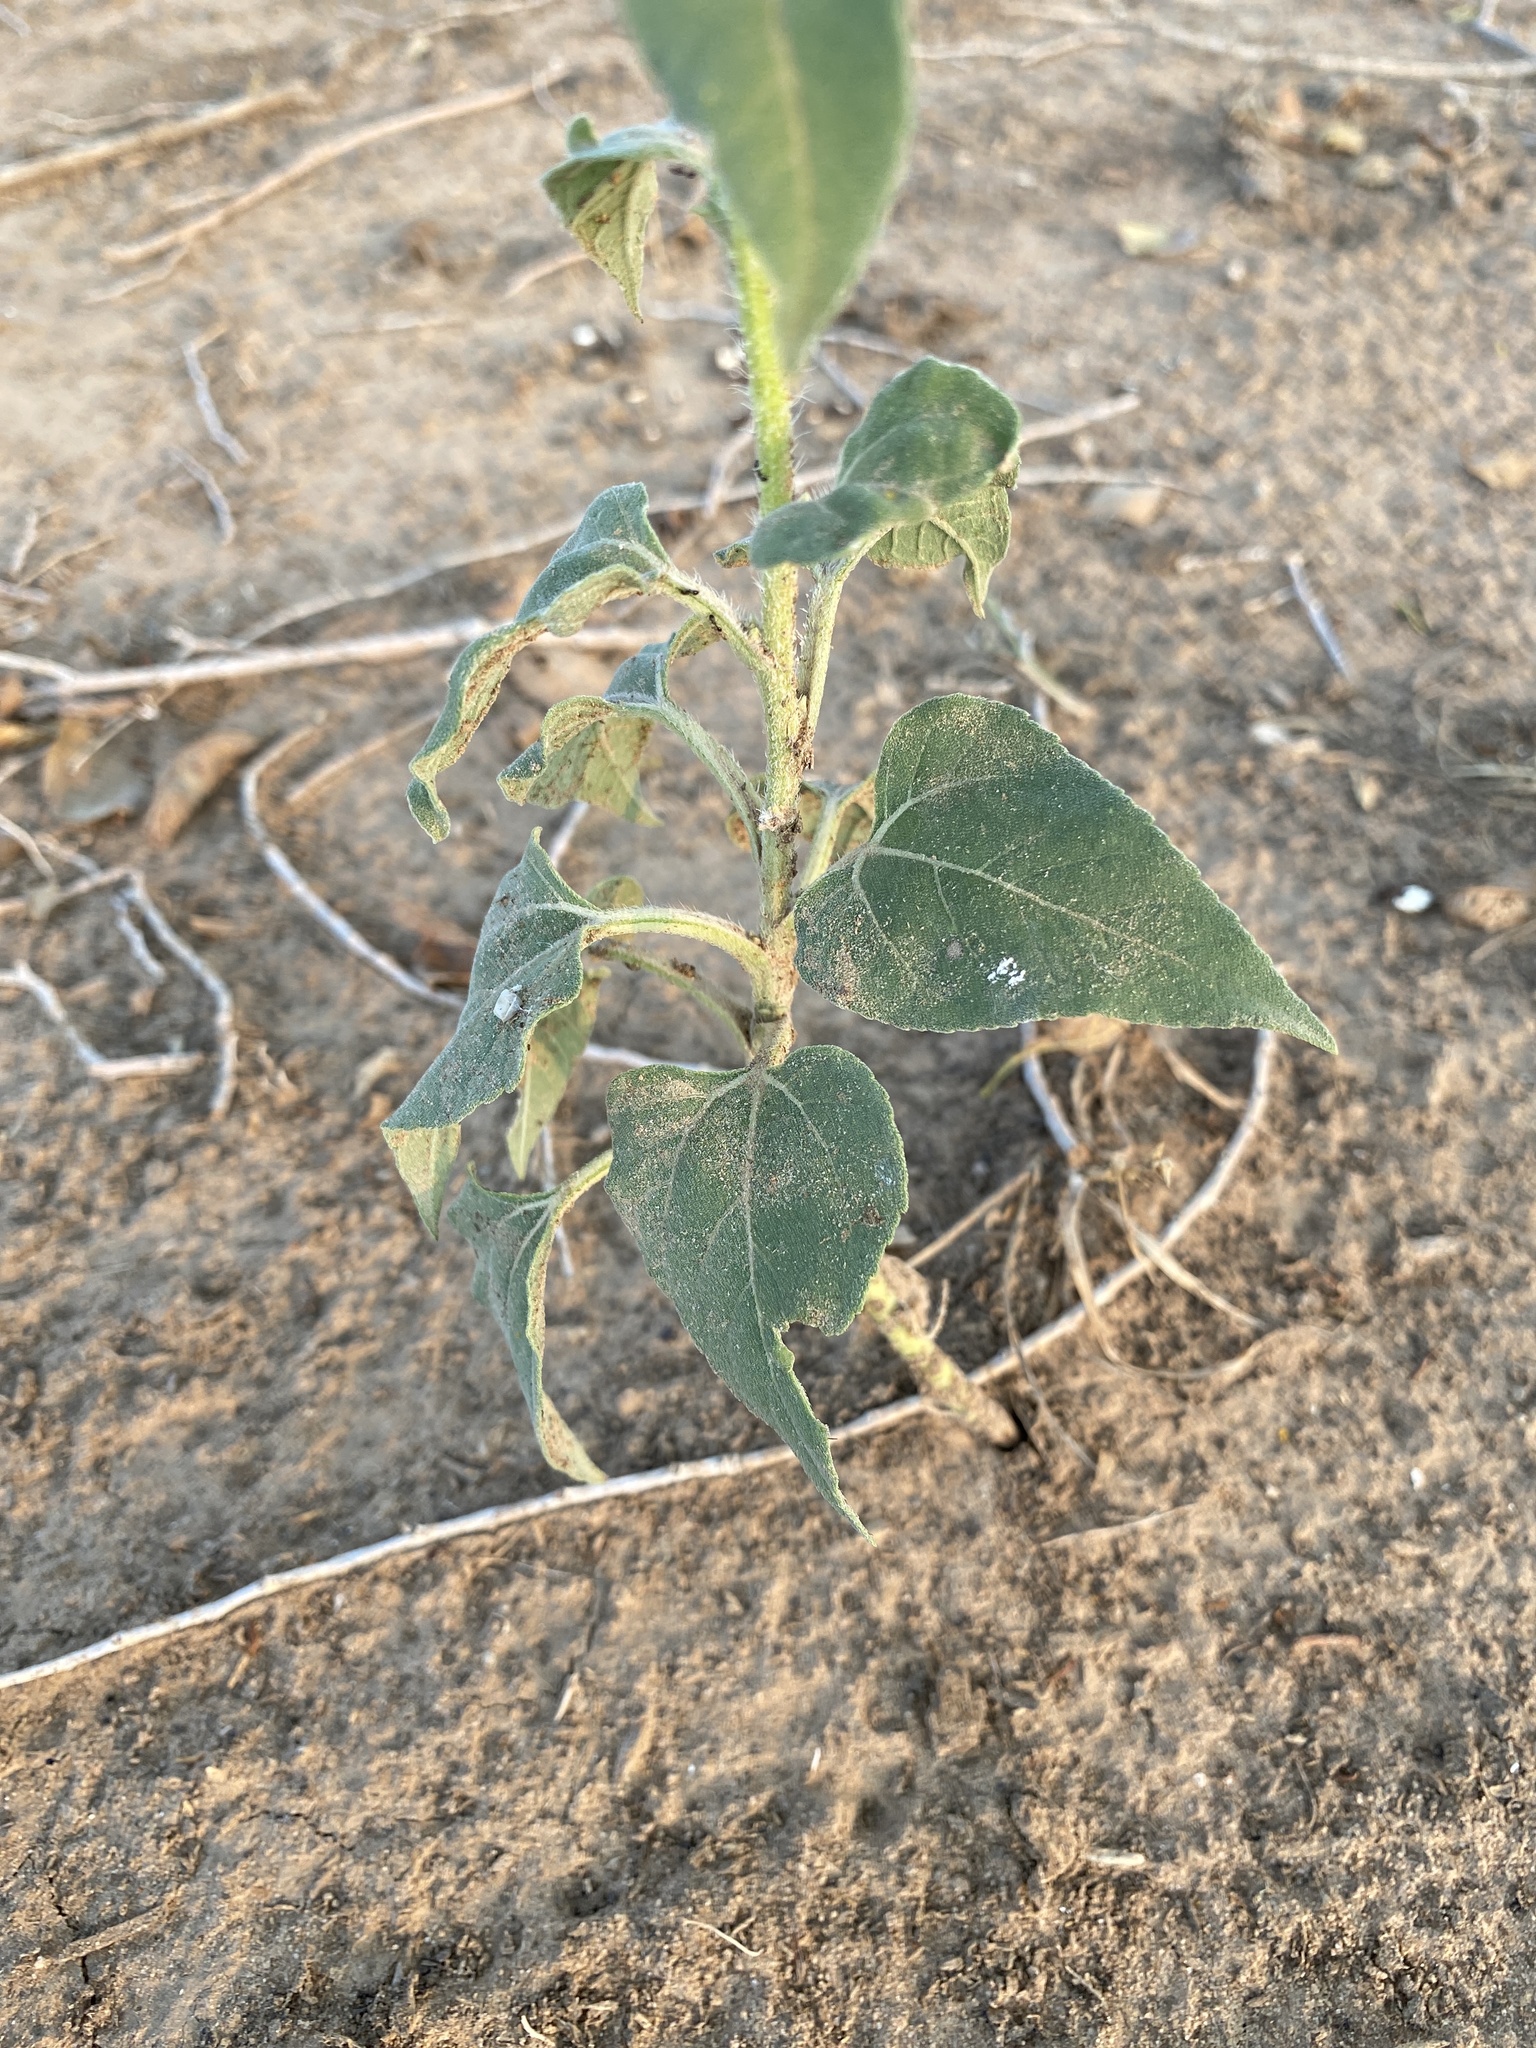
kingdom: Plantae
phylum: Tracheophyta
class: Magnoliopsida
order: Asterales
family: Asteraceae
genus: Helianthus
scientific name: Helianthus annuus
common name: Sunflower
